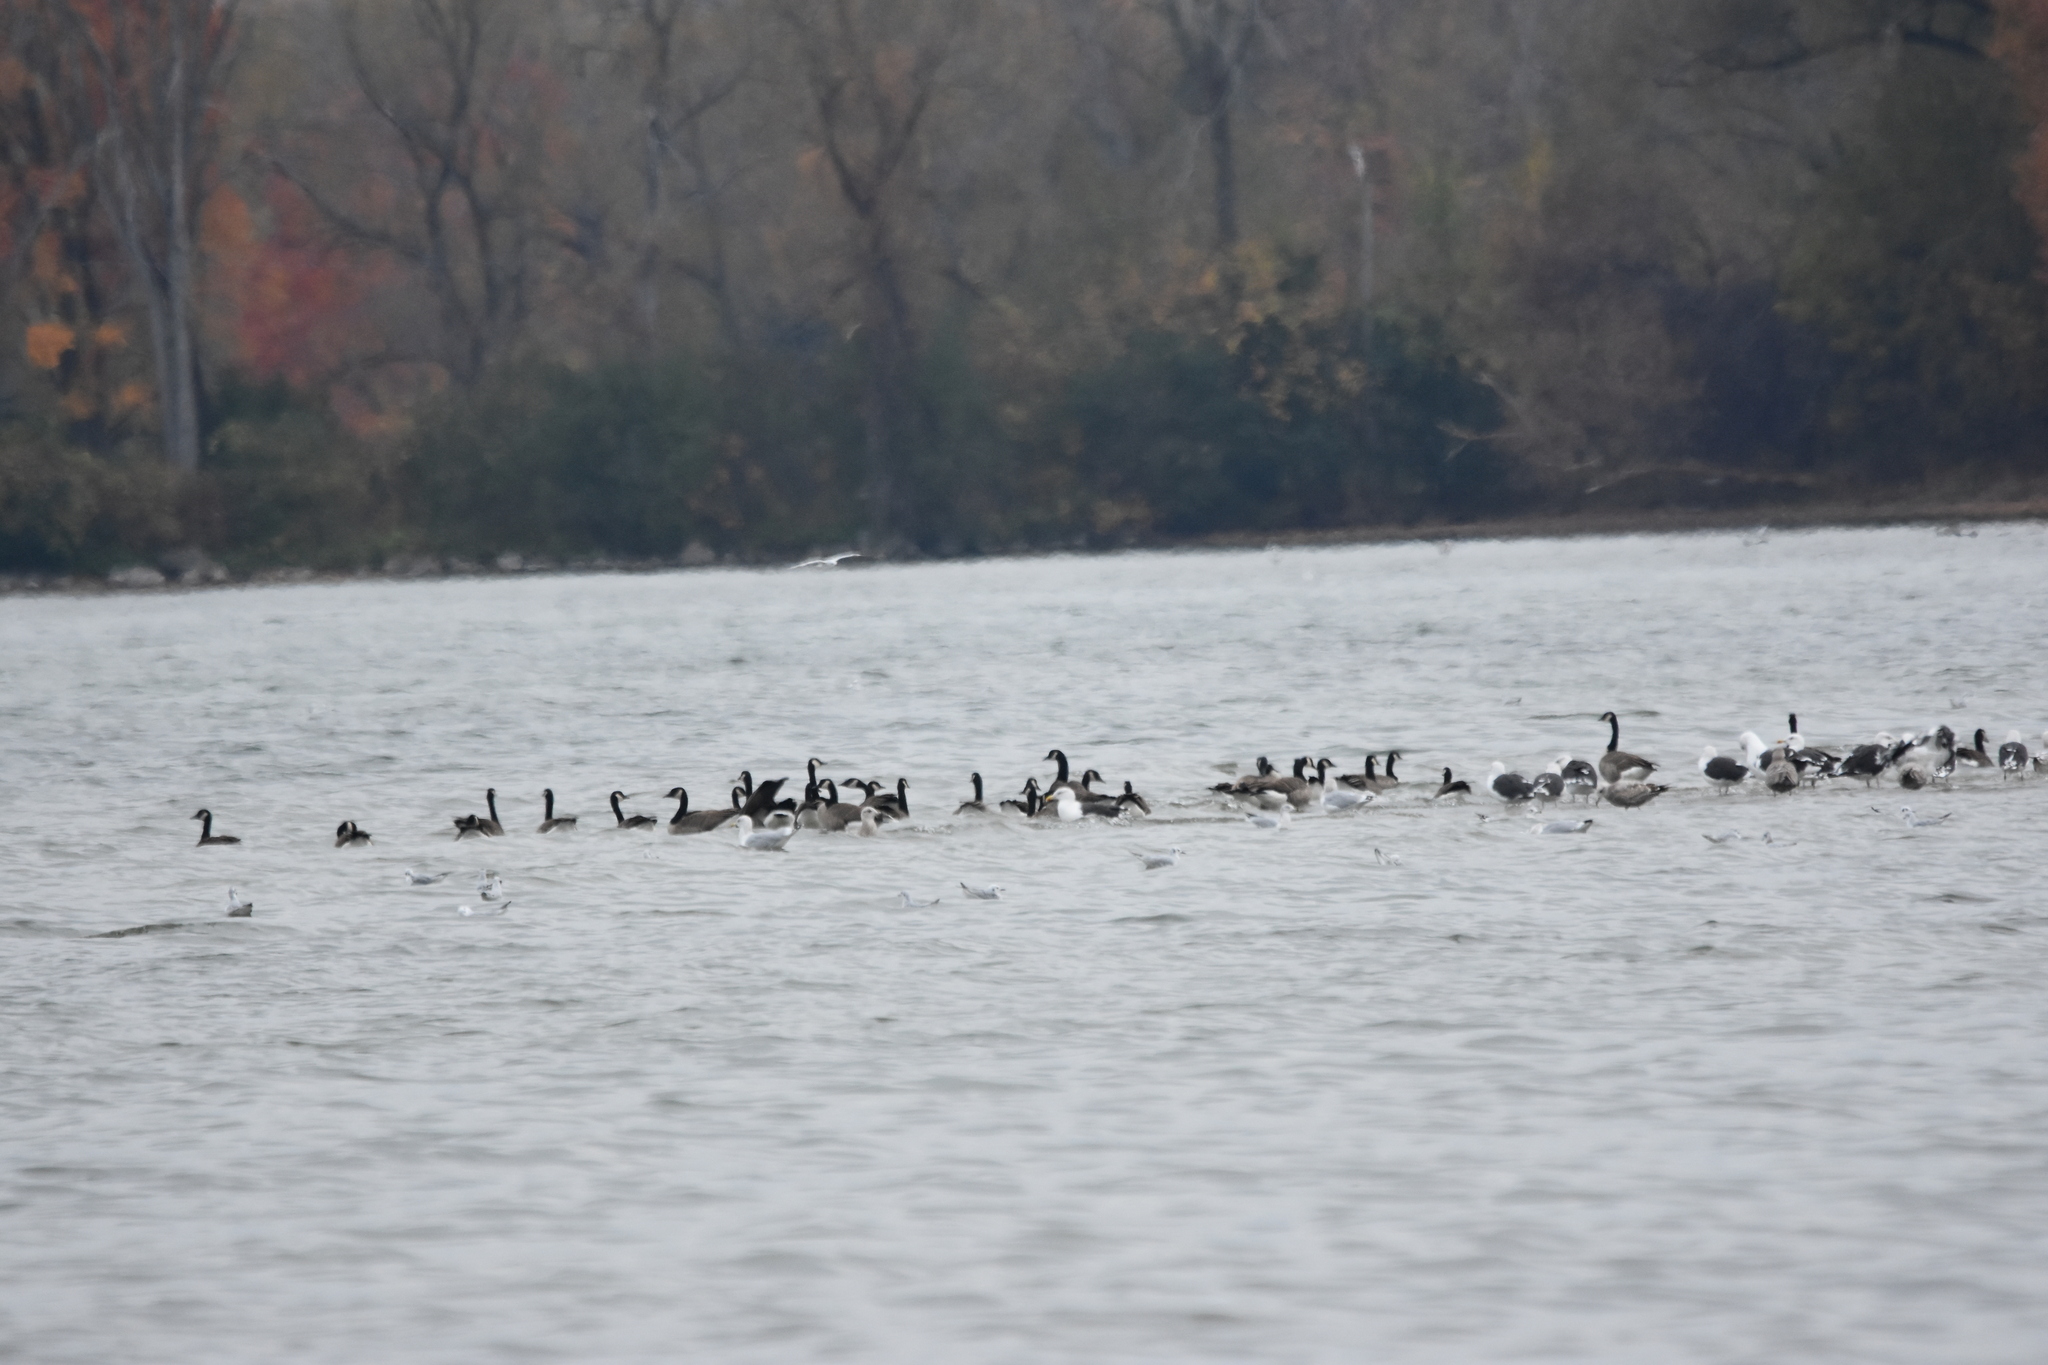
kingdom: Animalia
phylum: Chordata
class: Aves
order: Charadriiformes
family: Laridae
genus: Chroicocephalus
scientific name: Chroicocephalus philadelphia
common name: Bonaparte's gull
